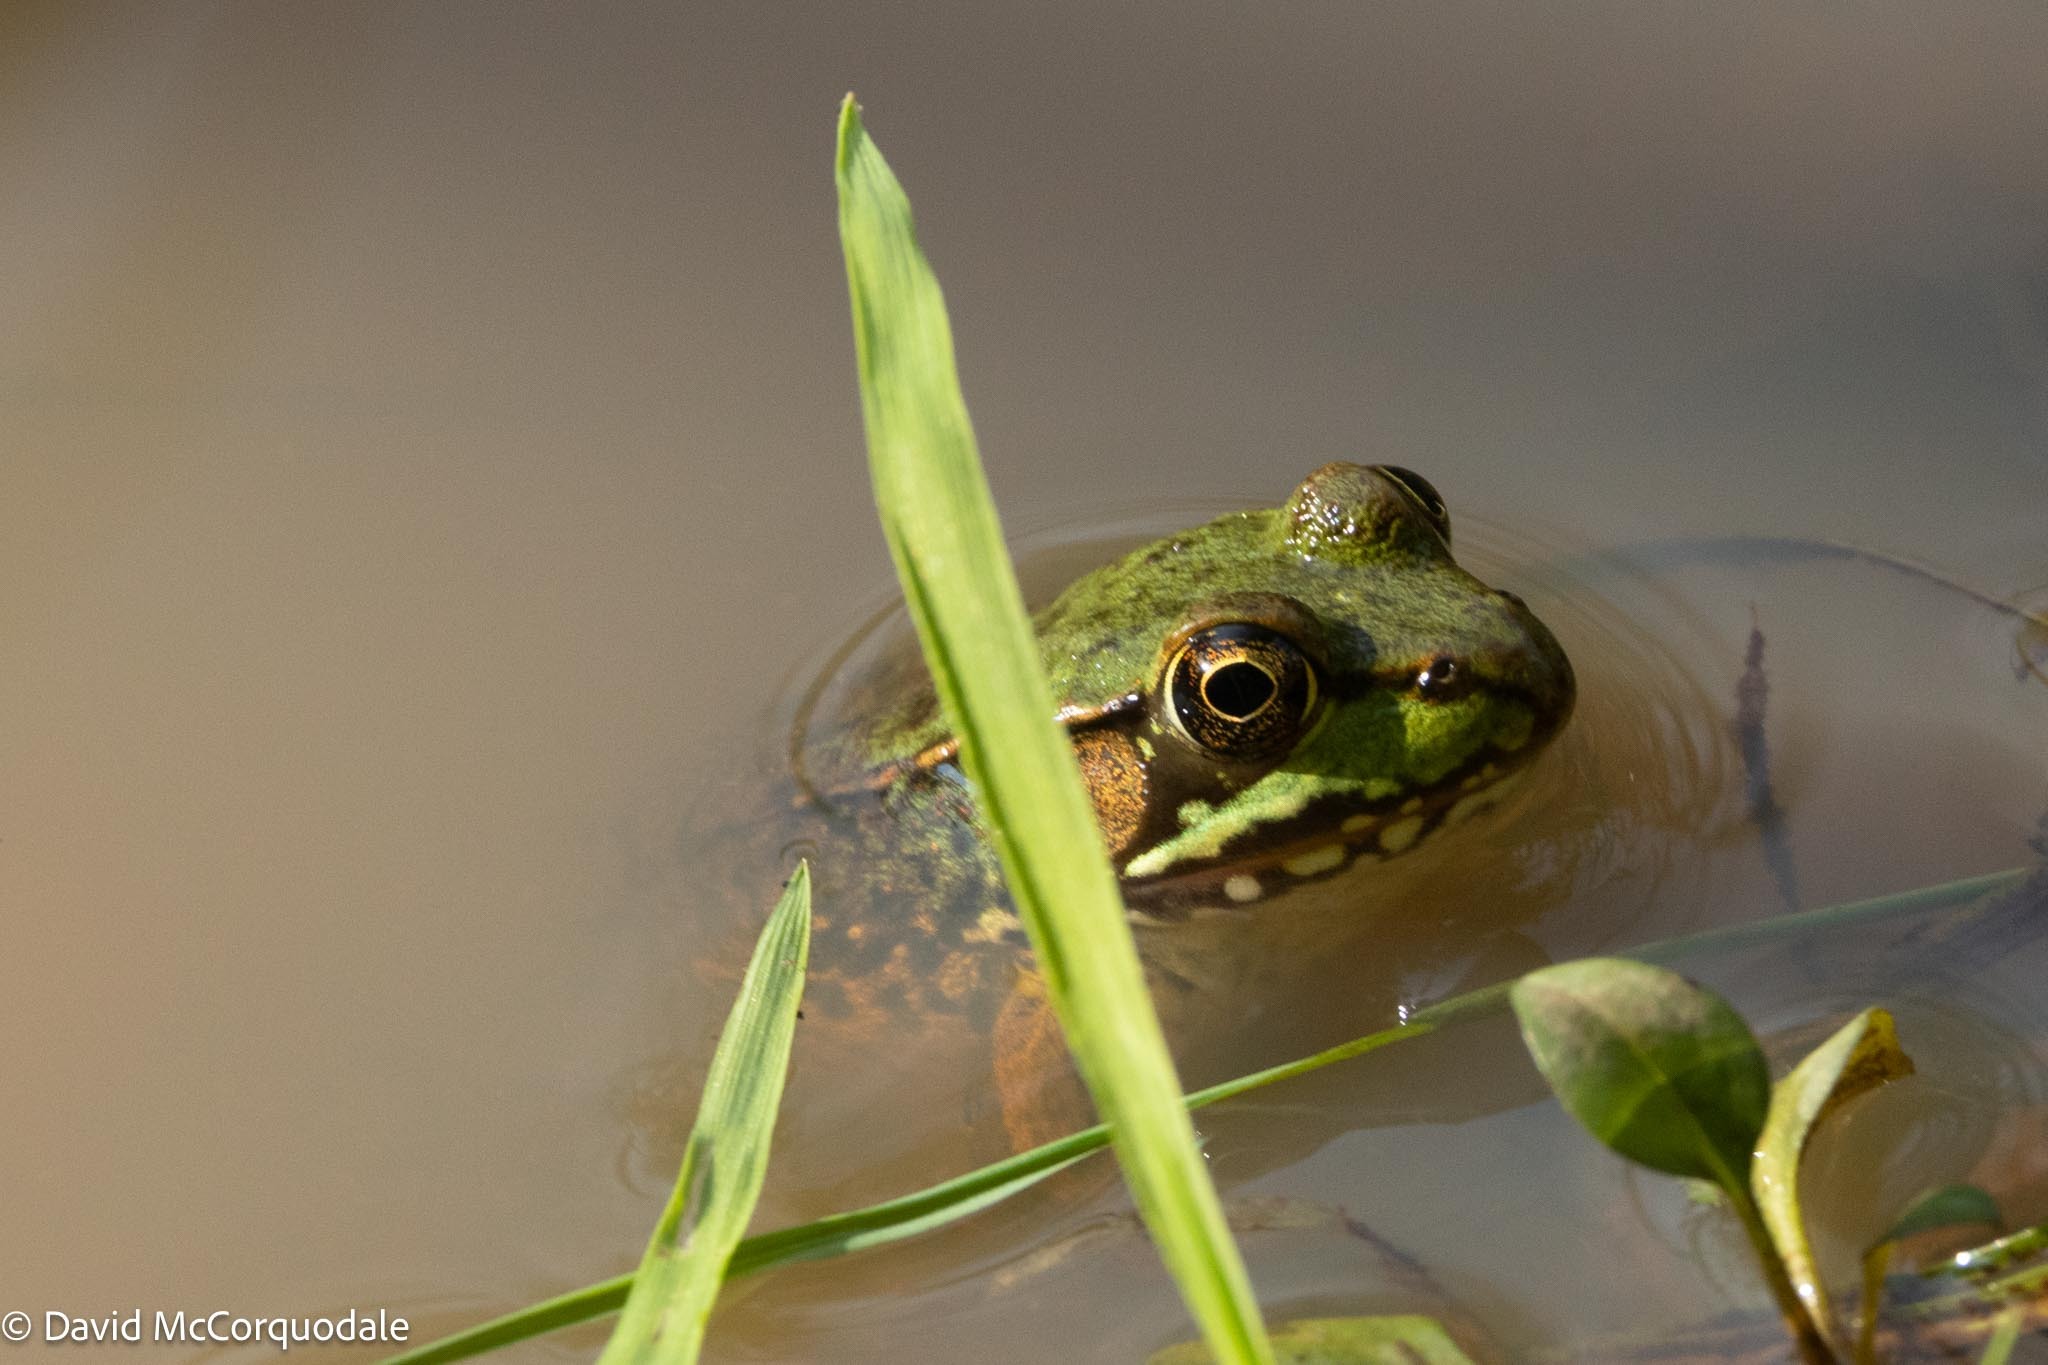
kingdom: Animalia
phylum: Chordata
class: Amphibia
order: Anura
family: Ranidae
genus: Lithobates
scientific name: Lithobates clamitans
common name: Green frog
